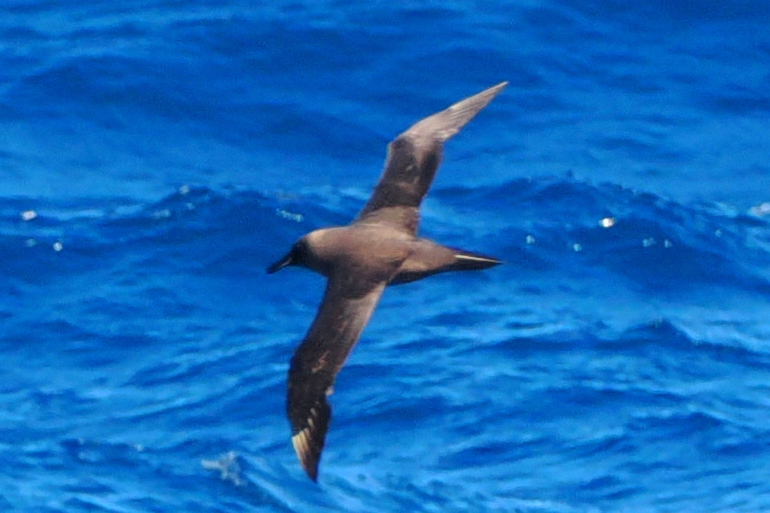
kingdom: Animalia
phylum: Chordata
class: Aves
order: Procellariiformes
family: Diomedeidae
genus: Phoebetria
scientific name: Phoebetria fusca
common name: Sooty albatross
